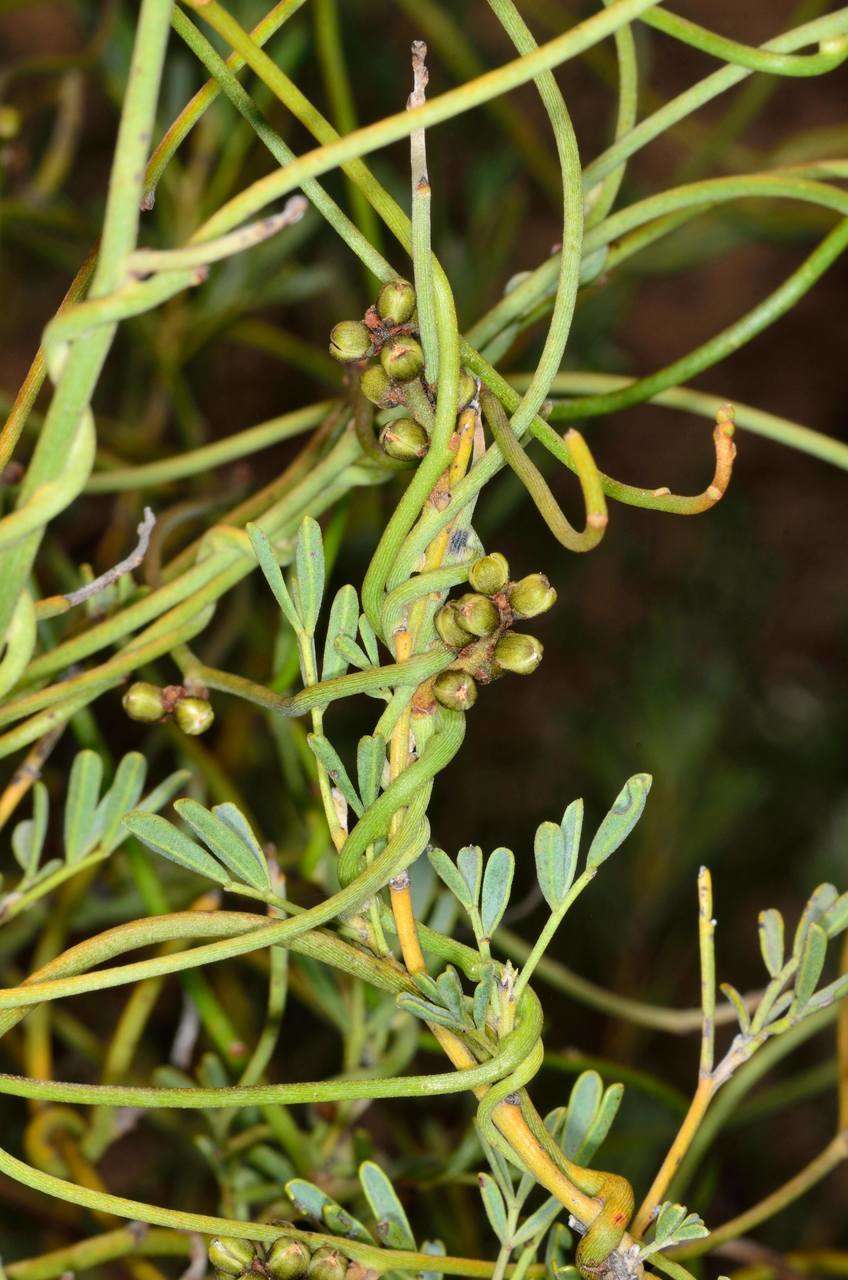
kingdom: Plantae
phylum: Tracheophyta
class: Magnoliopsida
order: Laurales
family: Lauraceae
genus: Cassytha
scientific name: Cassytha melantha
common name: Mallee stranglevine
